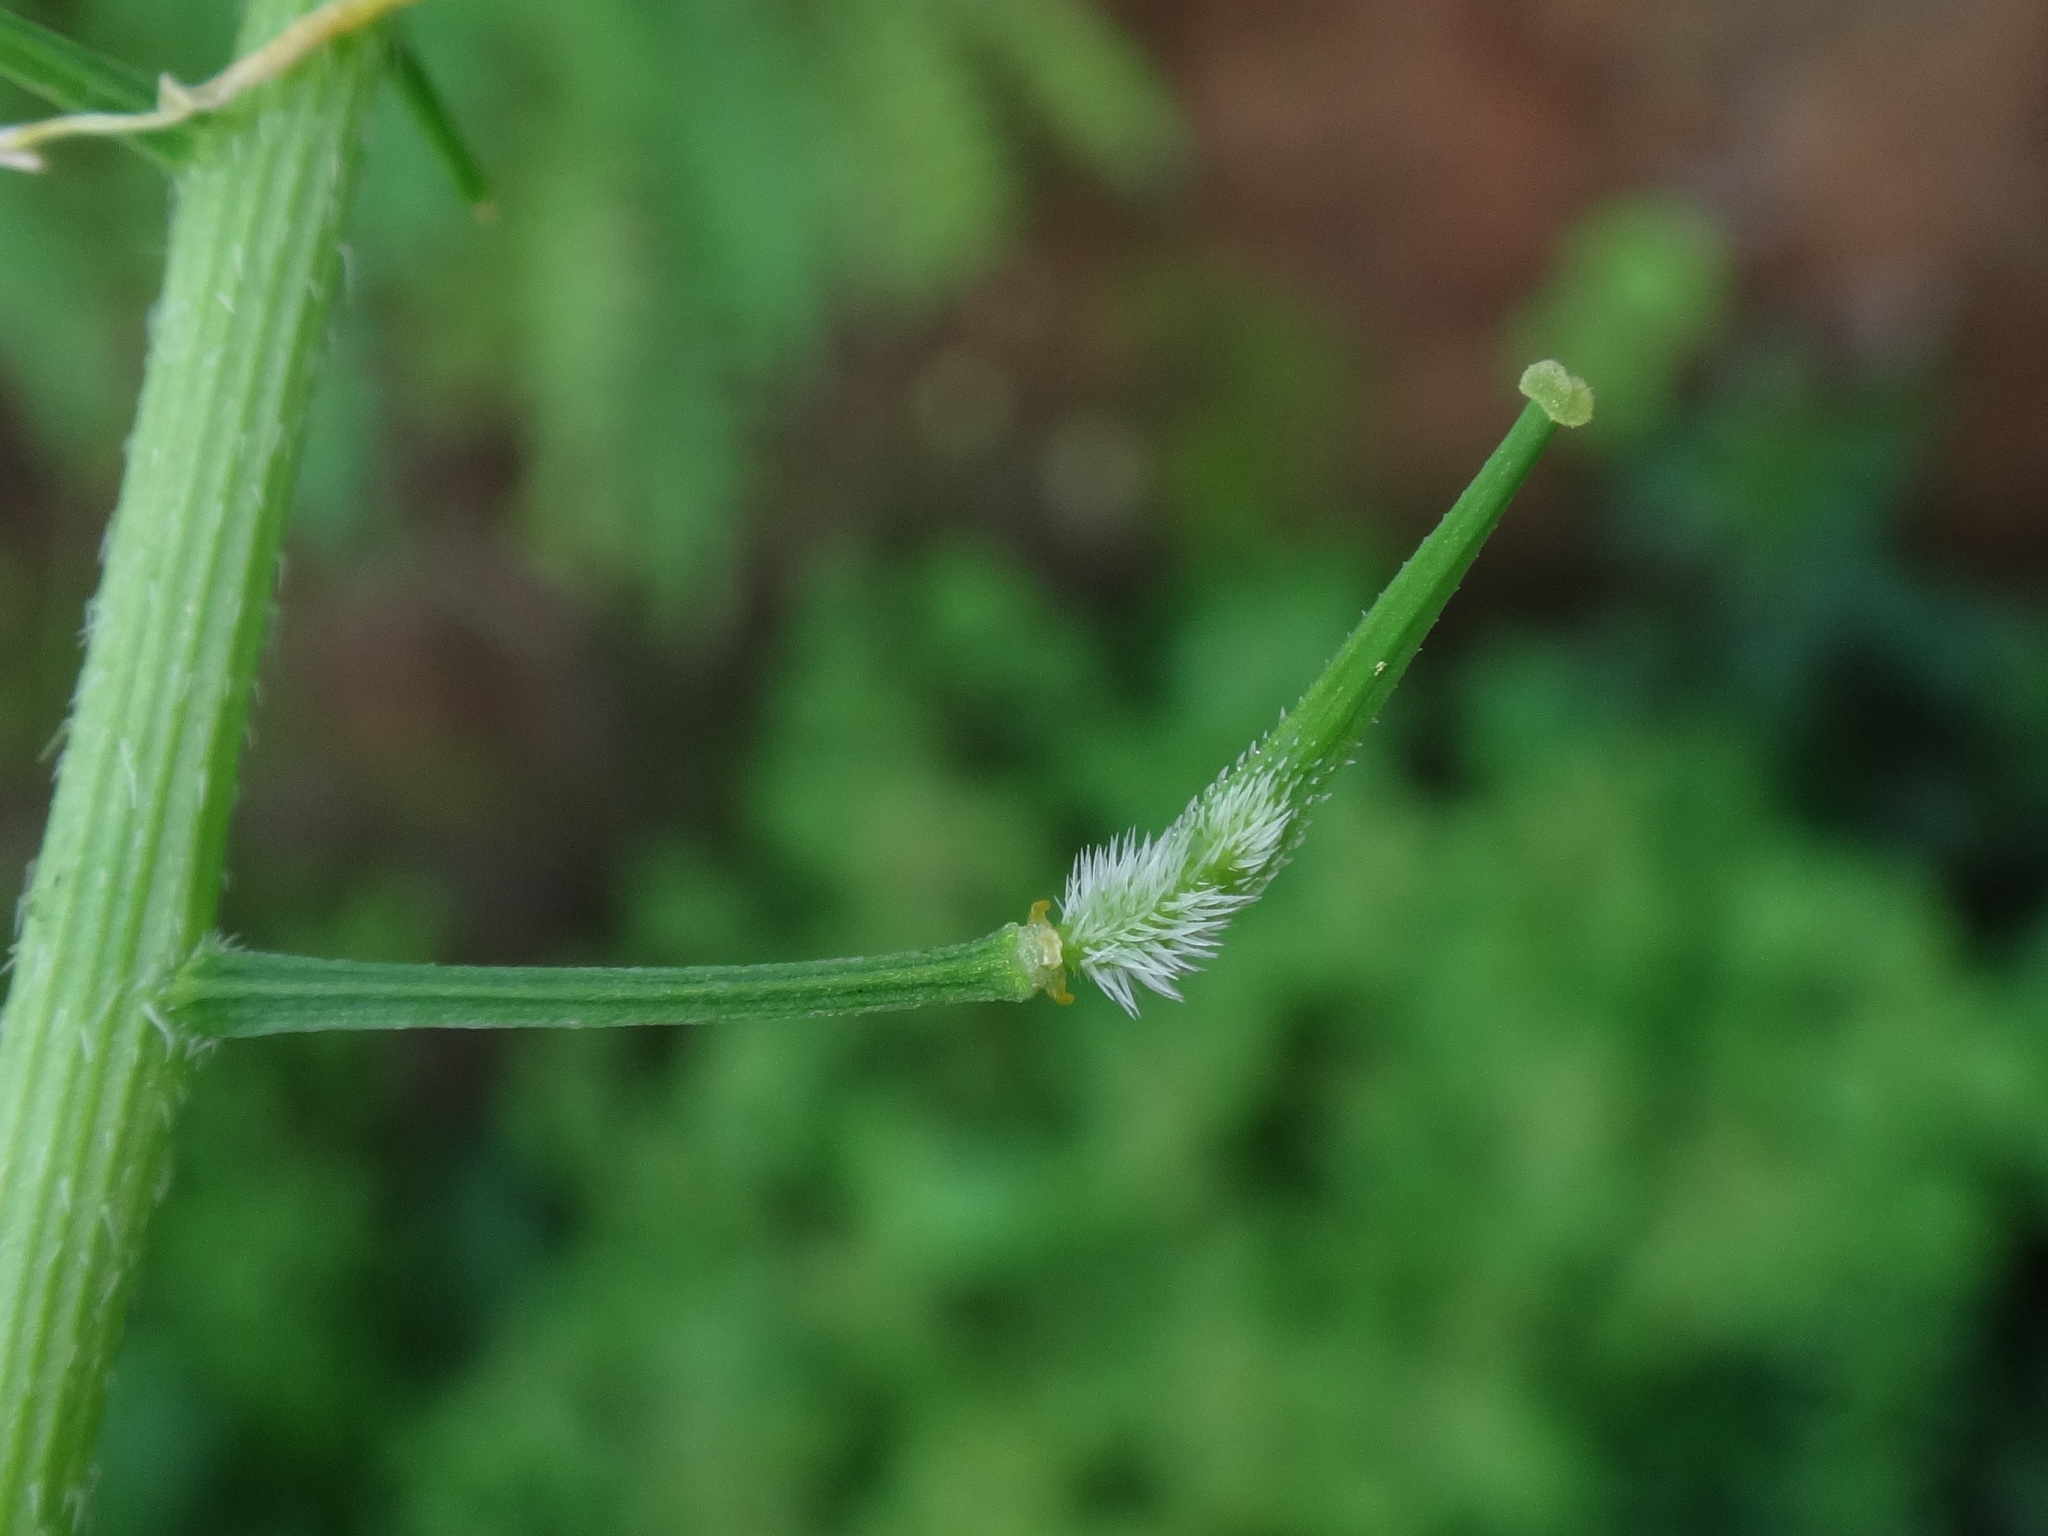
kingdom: Plantae
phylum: Tracheophyta
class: Magnoliopsida
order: Brassicales
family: Brassicaceae
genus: Sinapis
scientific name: Sinapis alba
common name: White mustard
